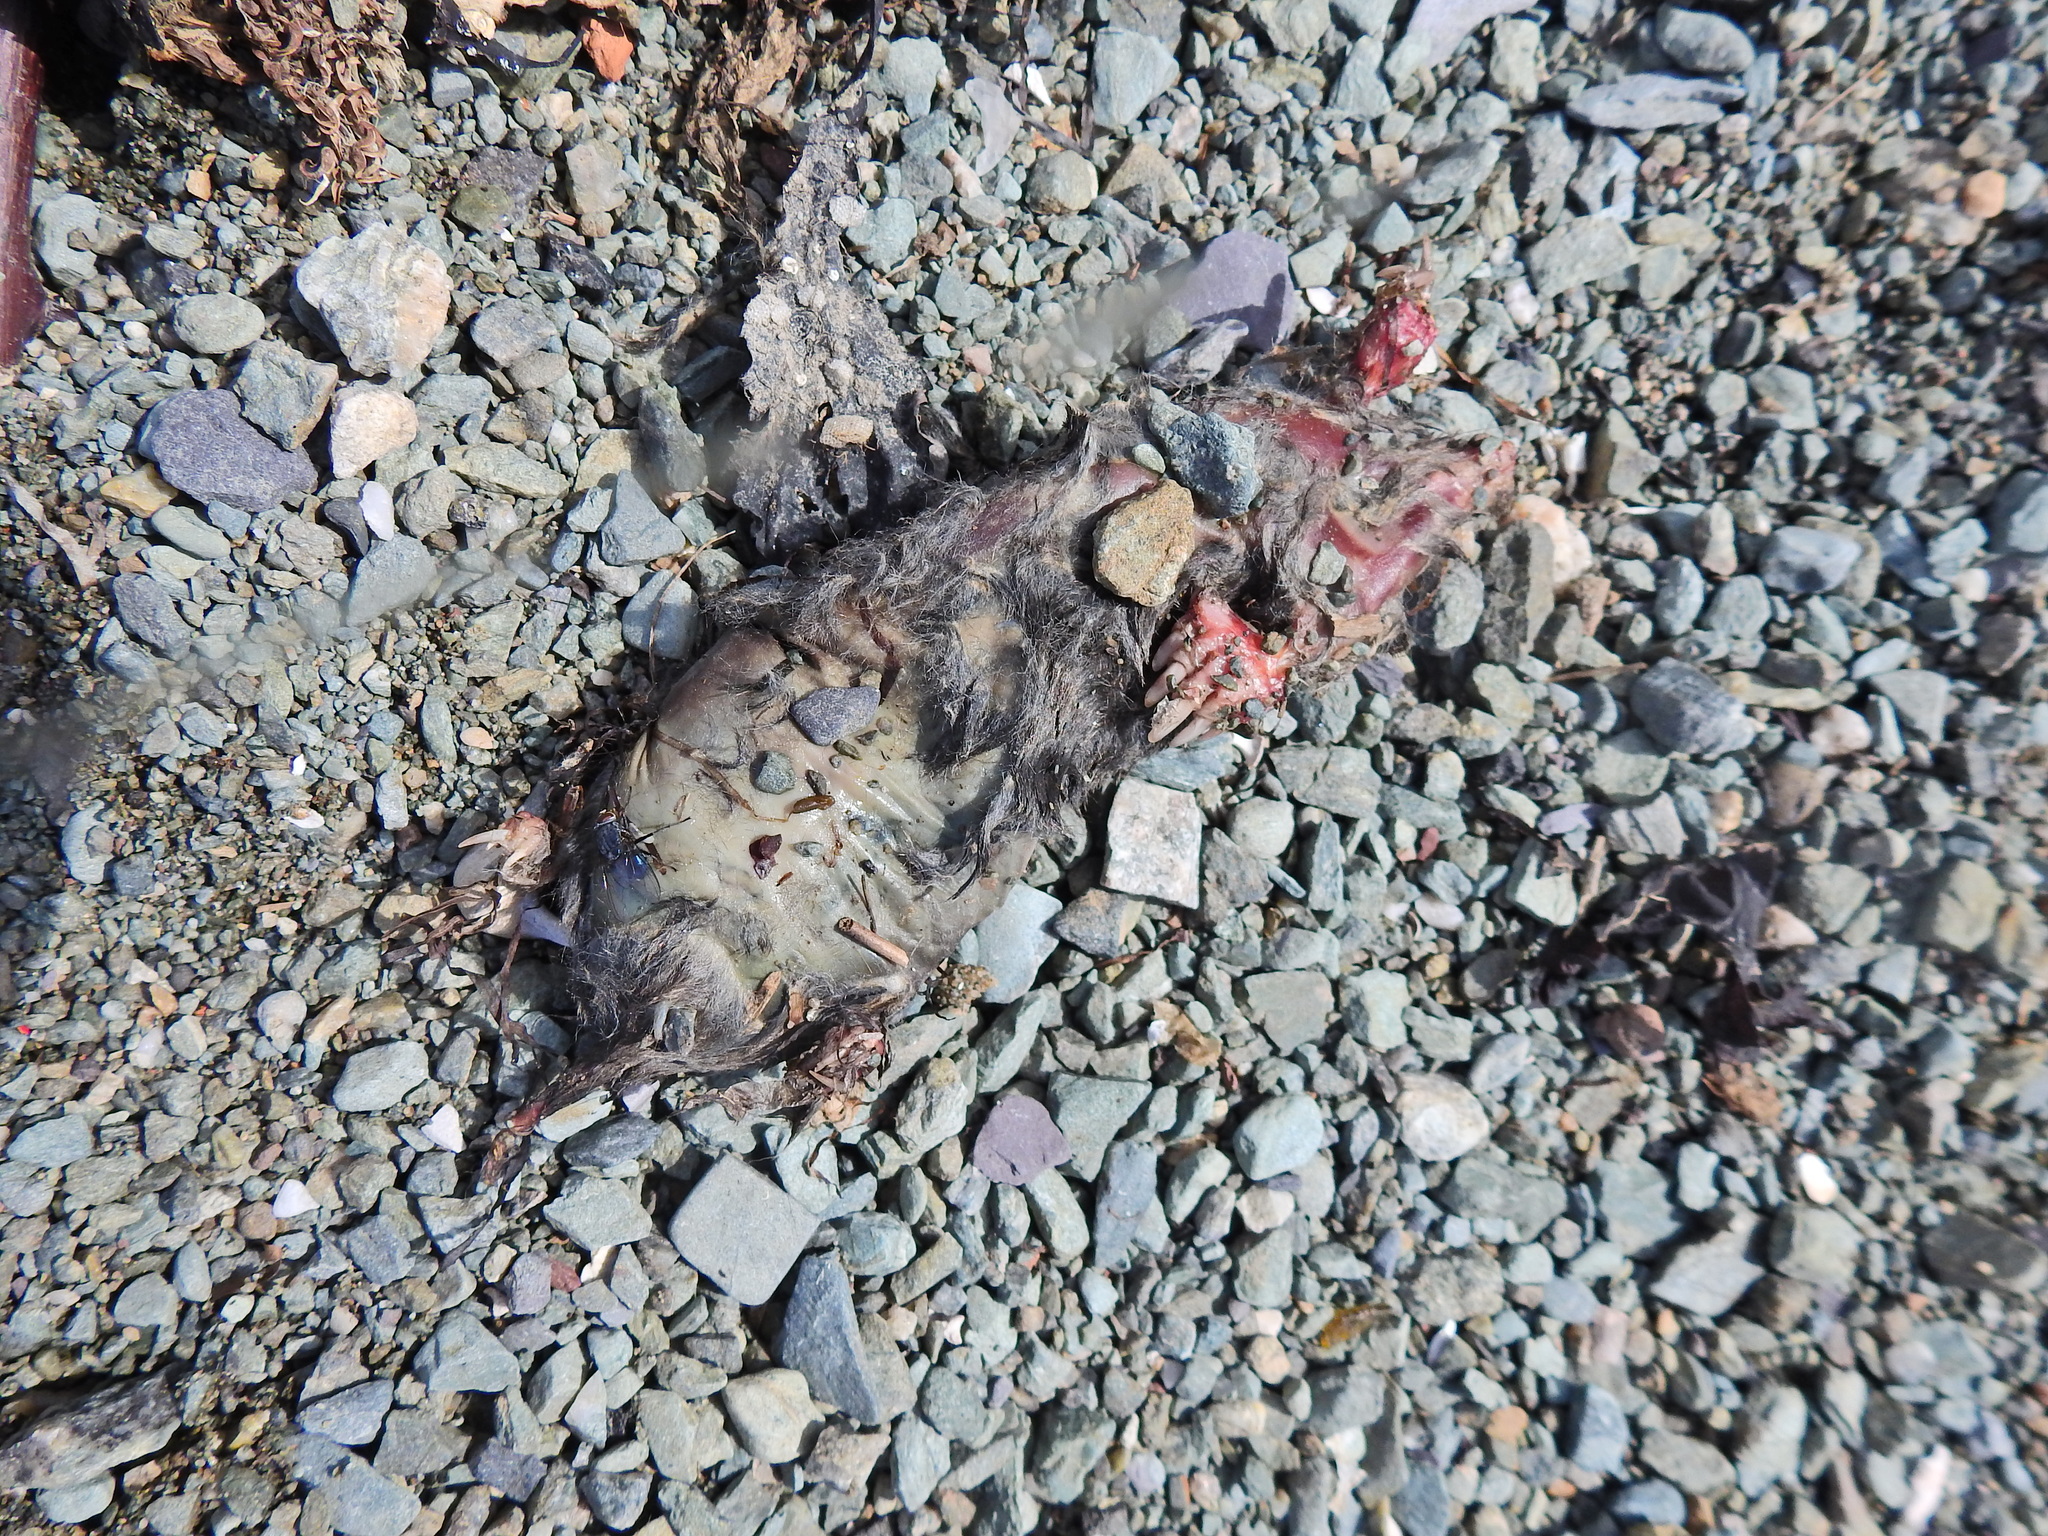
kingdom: Animalia
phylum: Chordata
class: Mammalia
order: Soricomorpha
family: Talpidae
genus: Talpa
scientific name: Talpa europaea
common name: European mole
